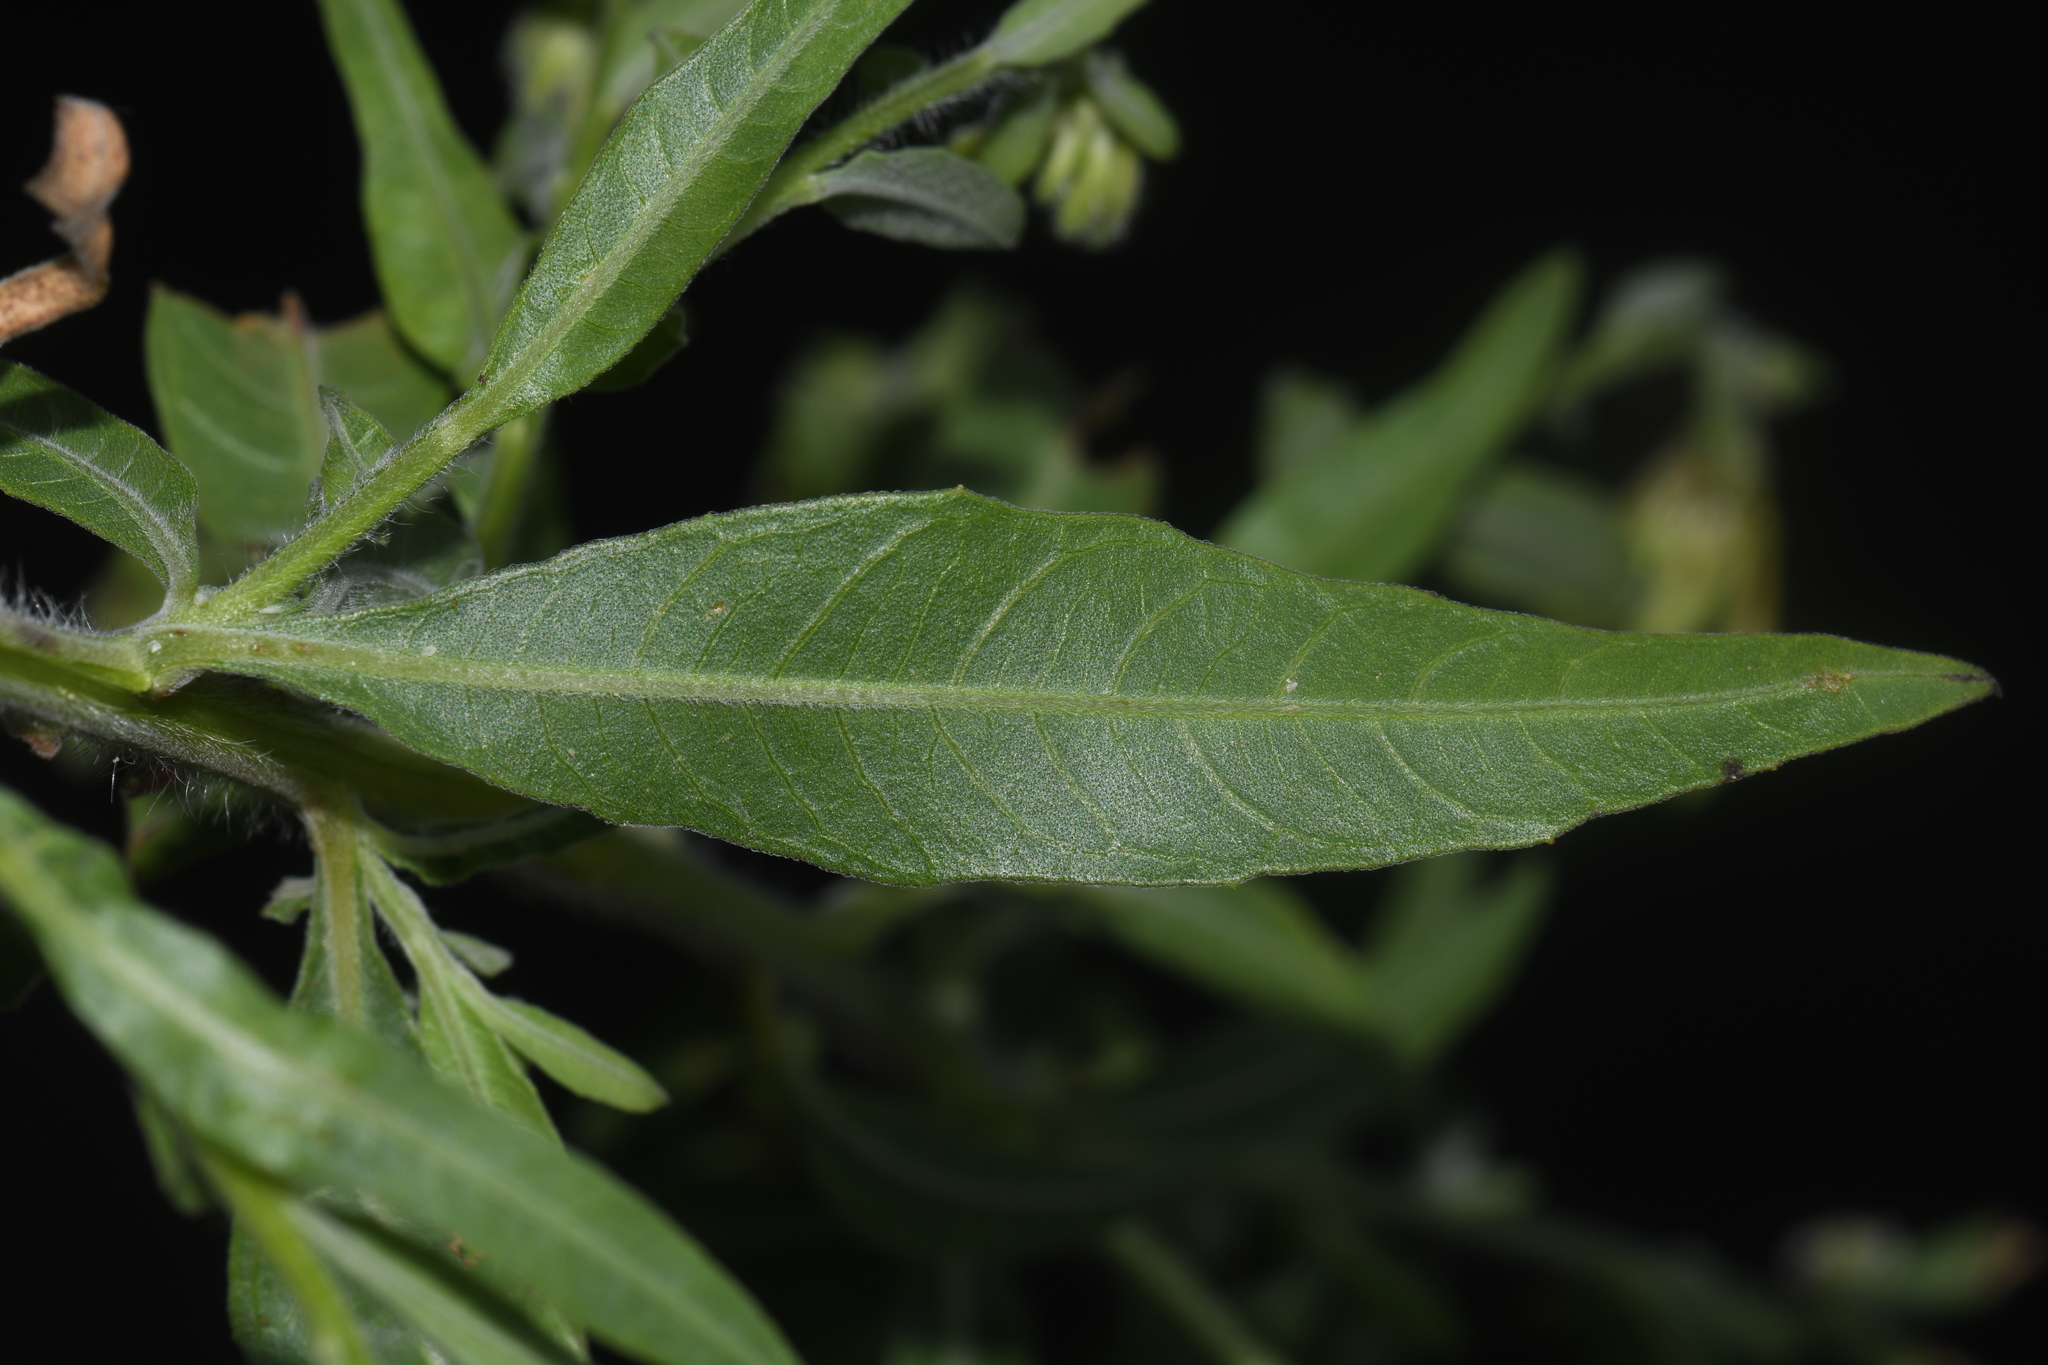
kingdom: Plantae
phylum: Tracheophyta
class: Magnoliopsida
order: Myrtales
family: Onagraceae
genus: Oenothera
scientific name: Oenothera gaura
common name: Biennial beeblossom
